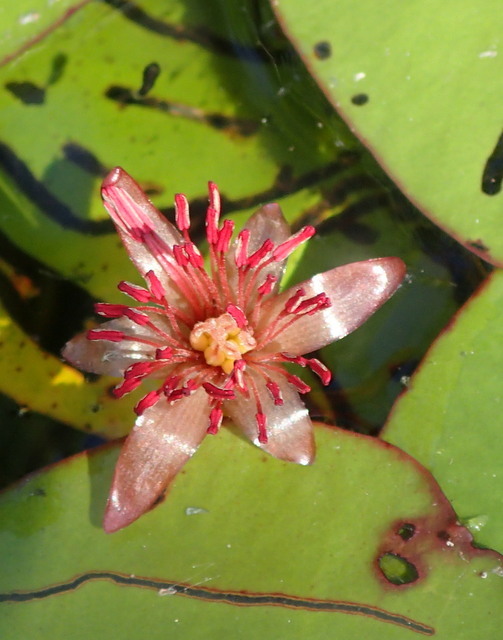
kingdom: Plantae
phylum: Tracheophyta
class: Magnoliopsida
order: Nymphaeales
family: Cabombaceae
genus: Brasenia
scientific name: Brasenia schreberi
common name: Water-shield
